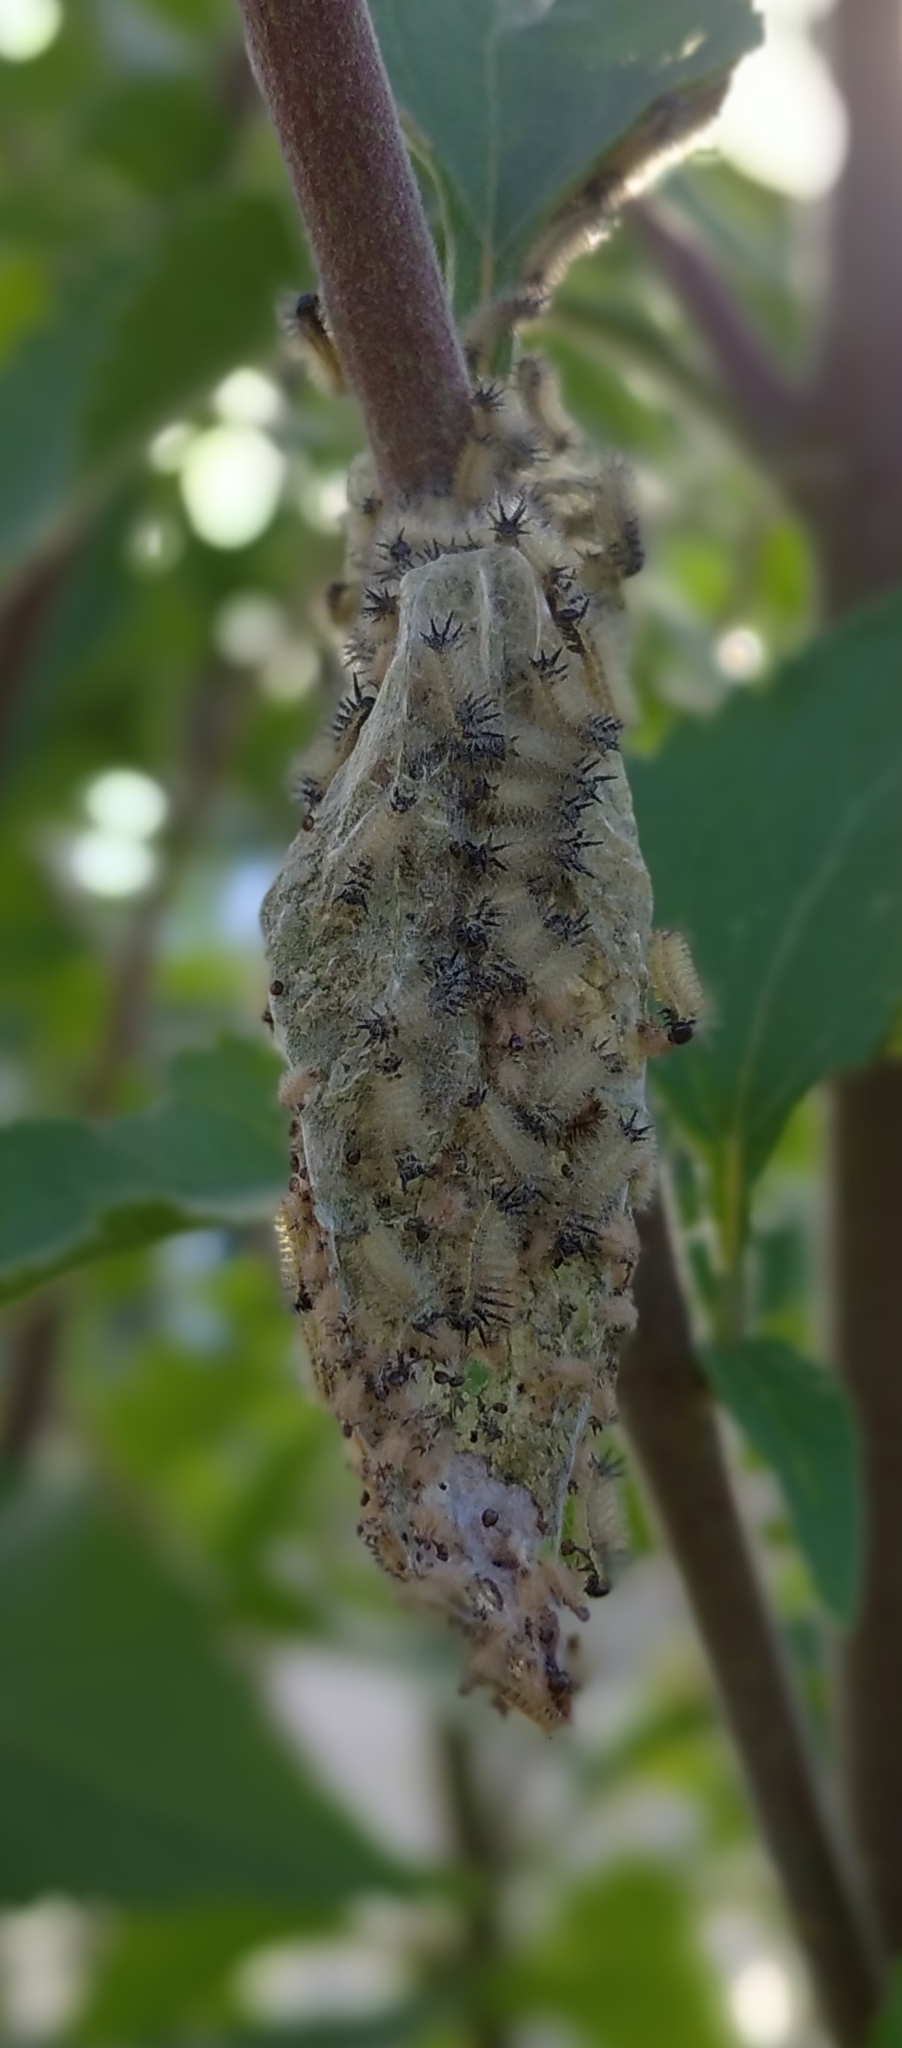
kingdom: Animalia
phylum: Arthropoda
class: Insecta
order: Lepidoptera
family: Nymphalidae
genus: Actinote
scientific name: Actinote pellenea
